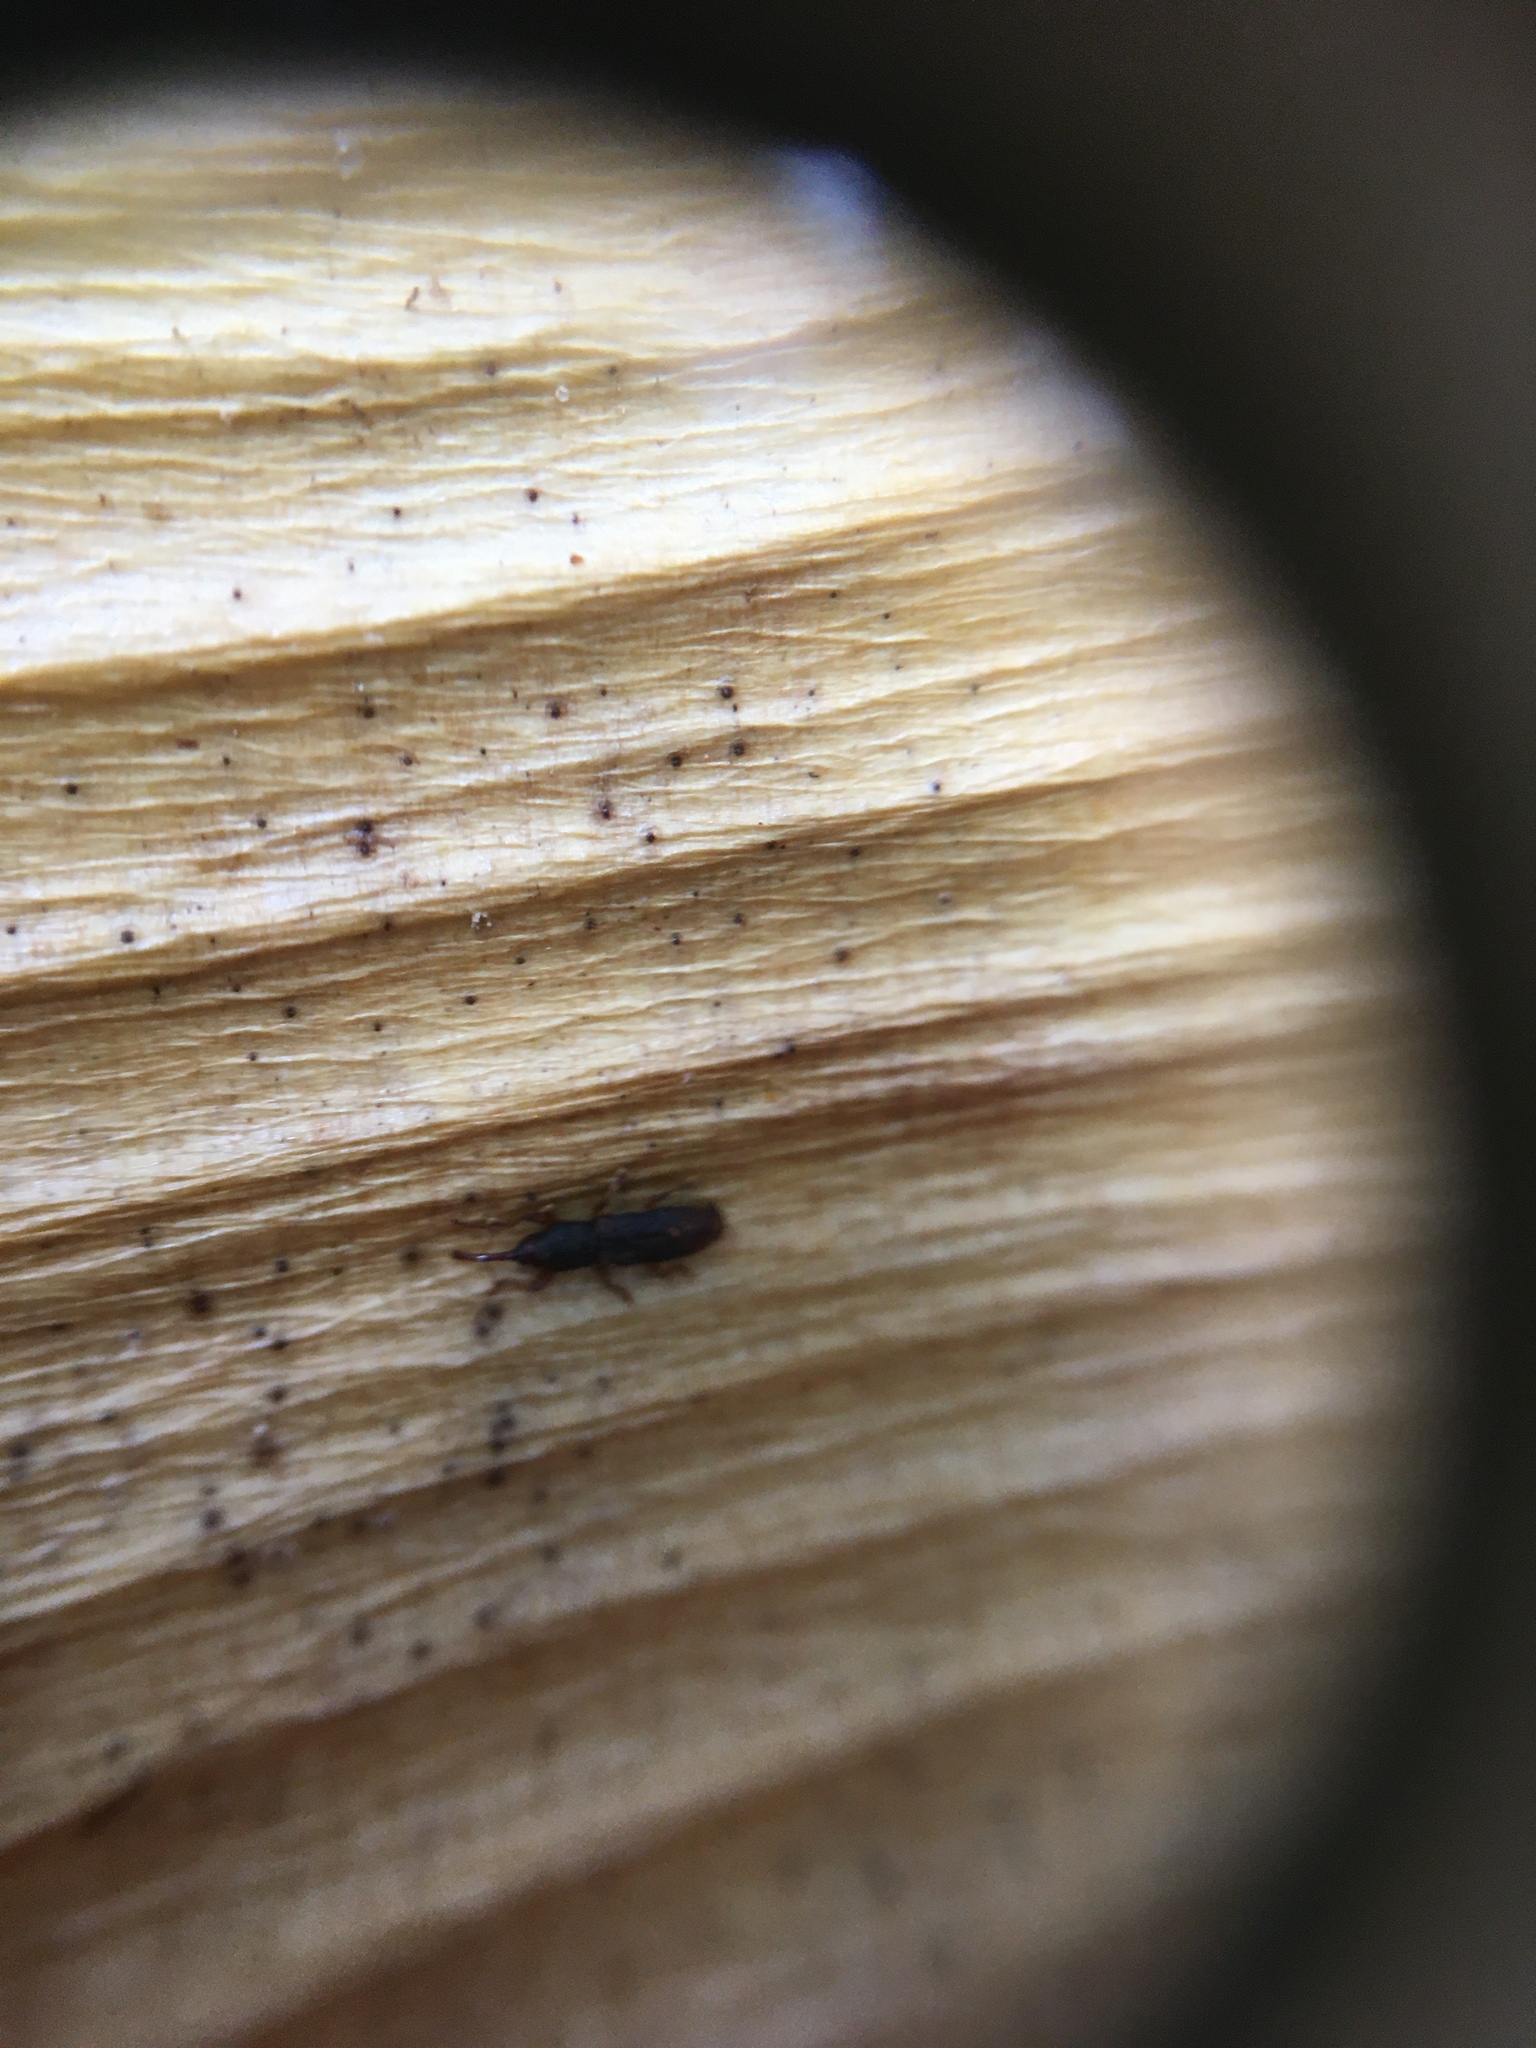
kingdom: Animalia
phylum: Arthropoda
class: Insecta
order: Coleoptera
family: Curculionidae
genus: Arecocryptus
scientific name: Arecocryptus bellus
